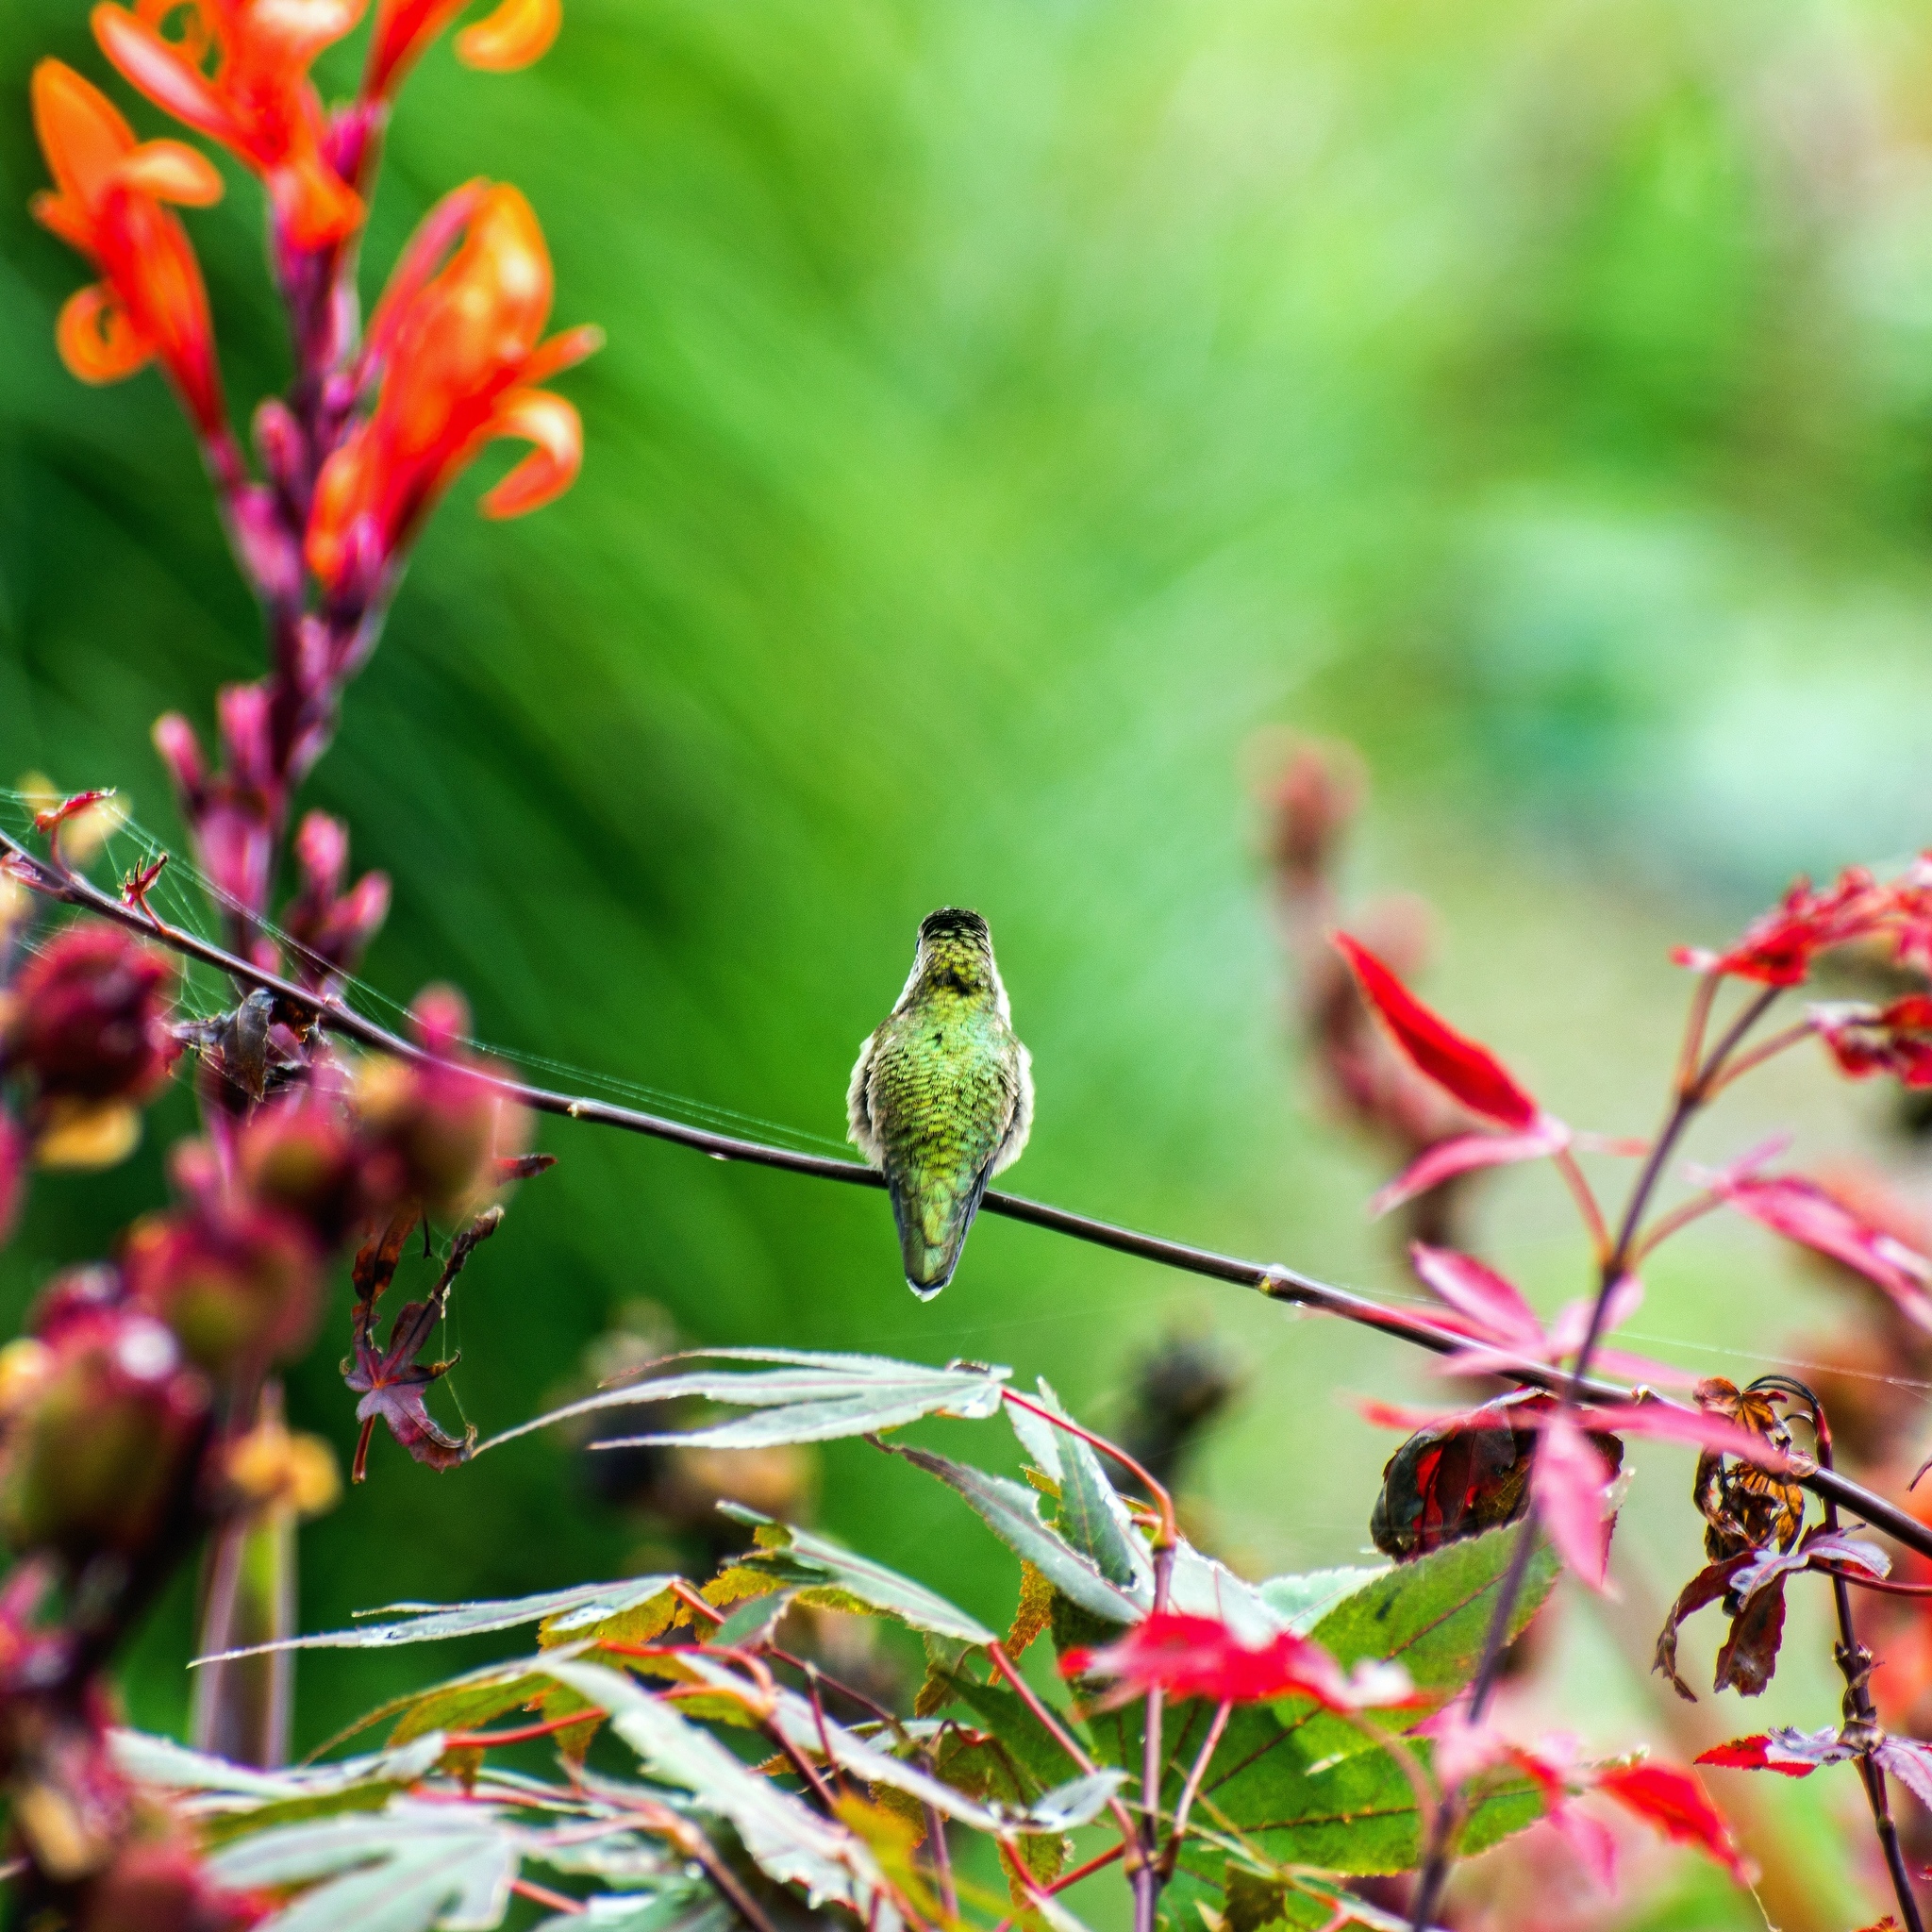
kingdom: Animalia
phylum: Chordata
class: Aves
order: Apodiformes
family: Trochilidae
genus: Archilochus
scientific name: Archilochus colubris
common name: Ruby-throated hummingbird
